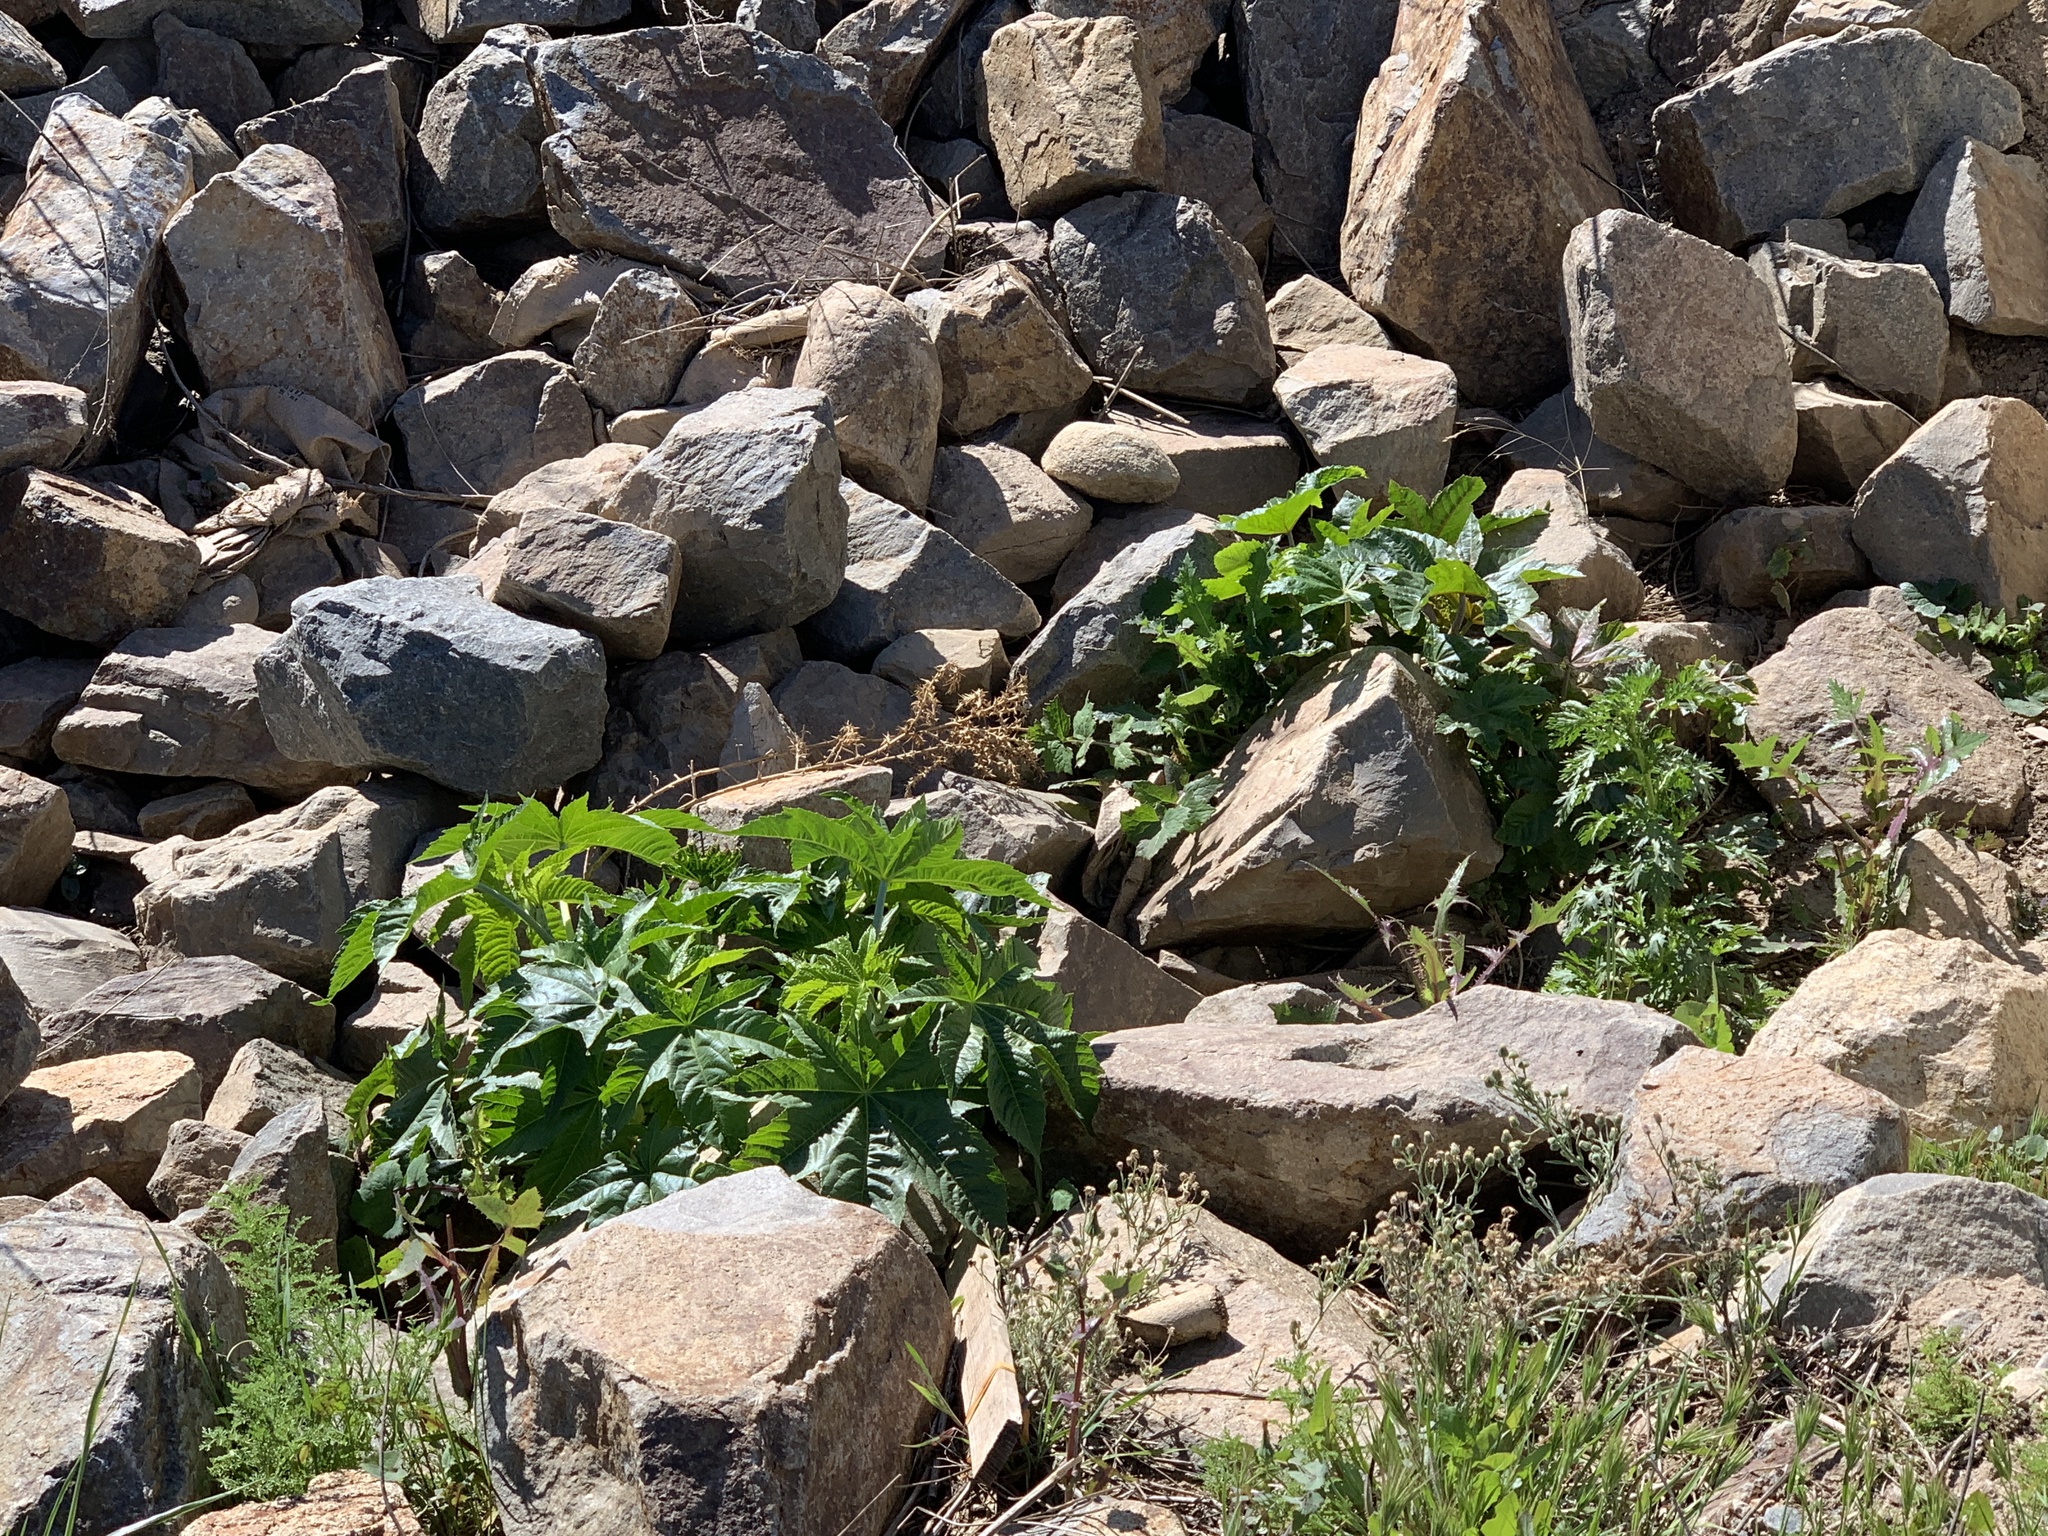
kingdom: Plantae
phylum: Tracheophyta
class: Magnoliopsida
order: Malpighiales
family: Euphorbiaceae
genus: Ricinus
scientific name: Ricinus communis
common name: Castor-oil-plant
